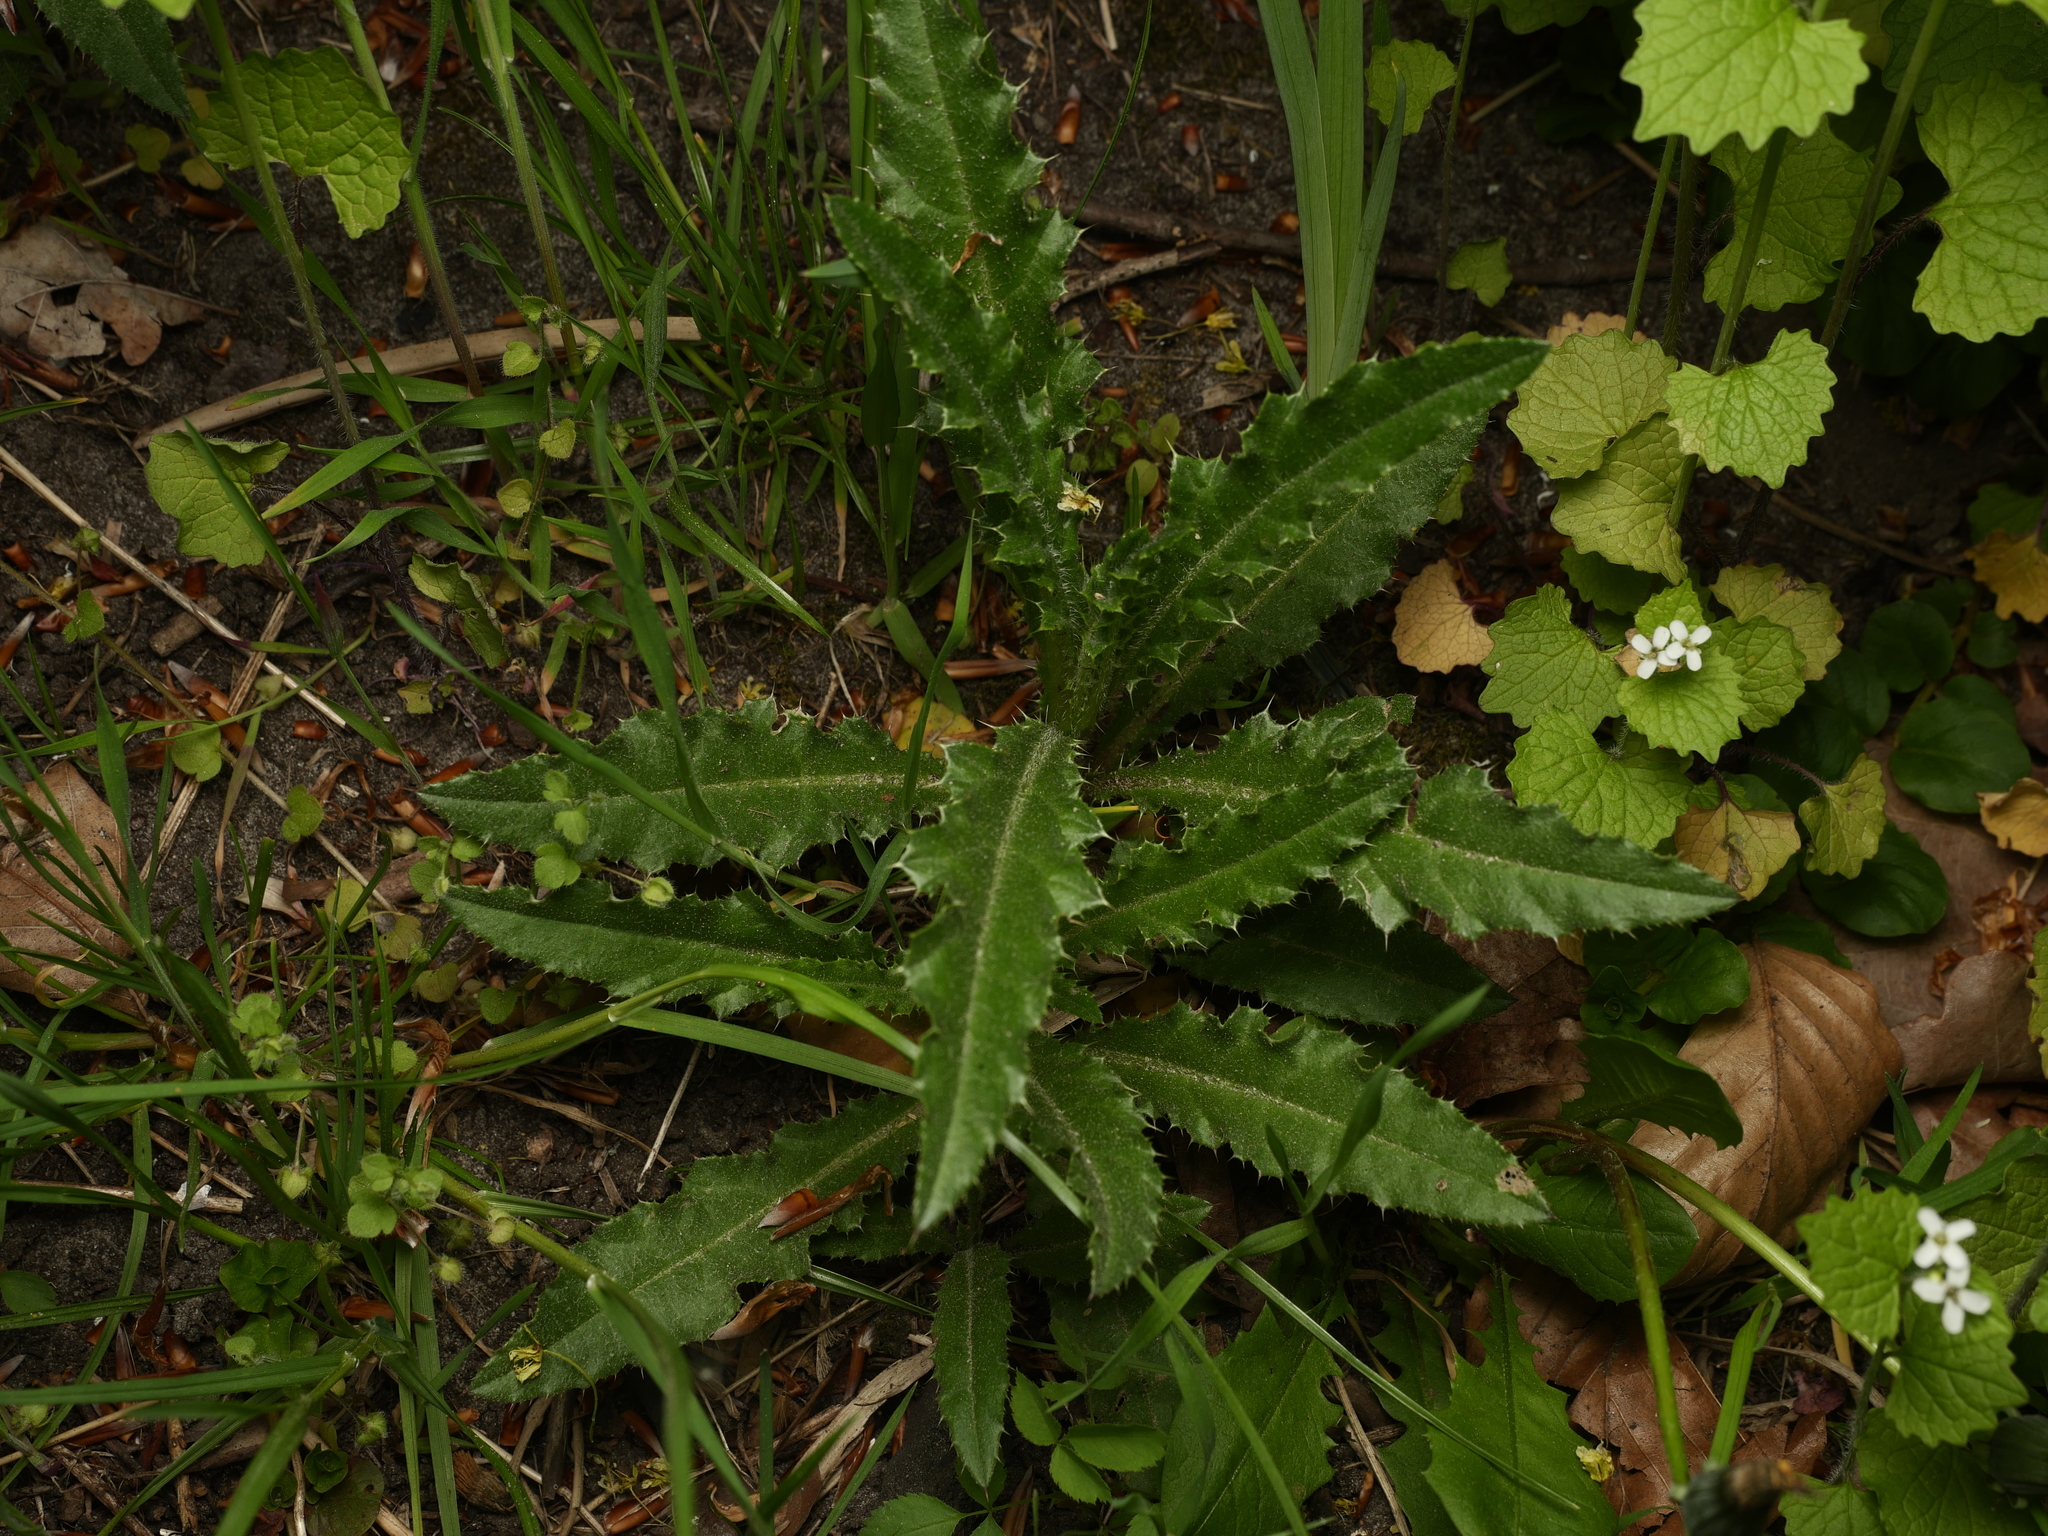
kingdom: Plantae
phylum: Tracheophyta
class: Magnoliopsida
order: Asterales
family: Asteraceae
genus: Cirsium
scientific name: Cirsium arvense
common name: Creeping thistle
